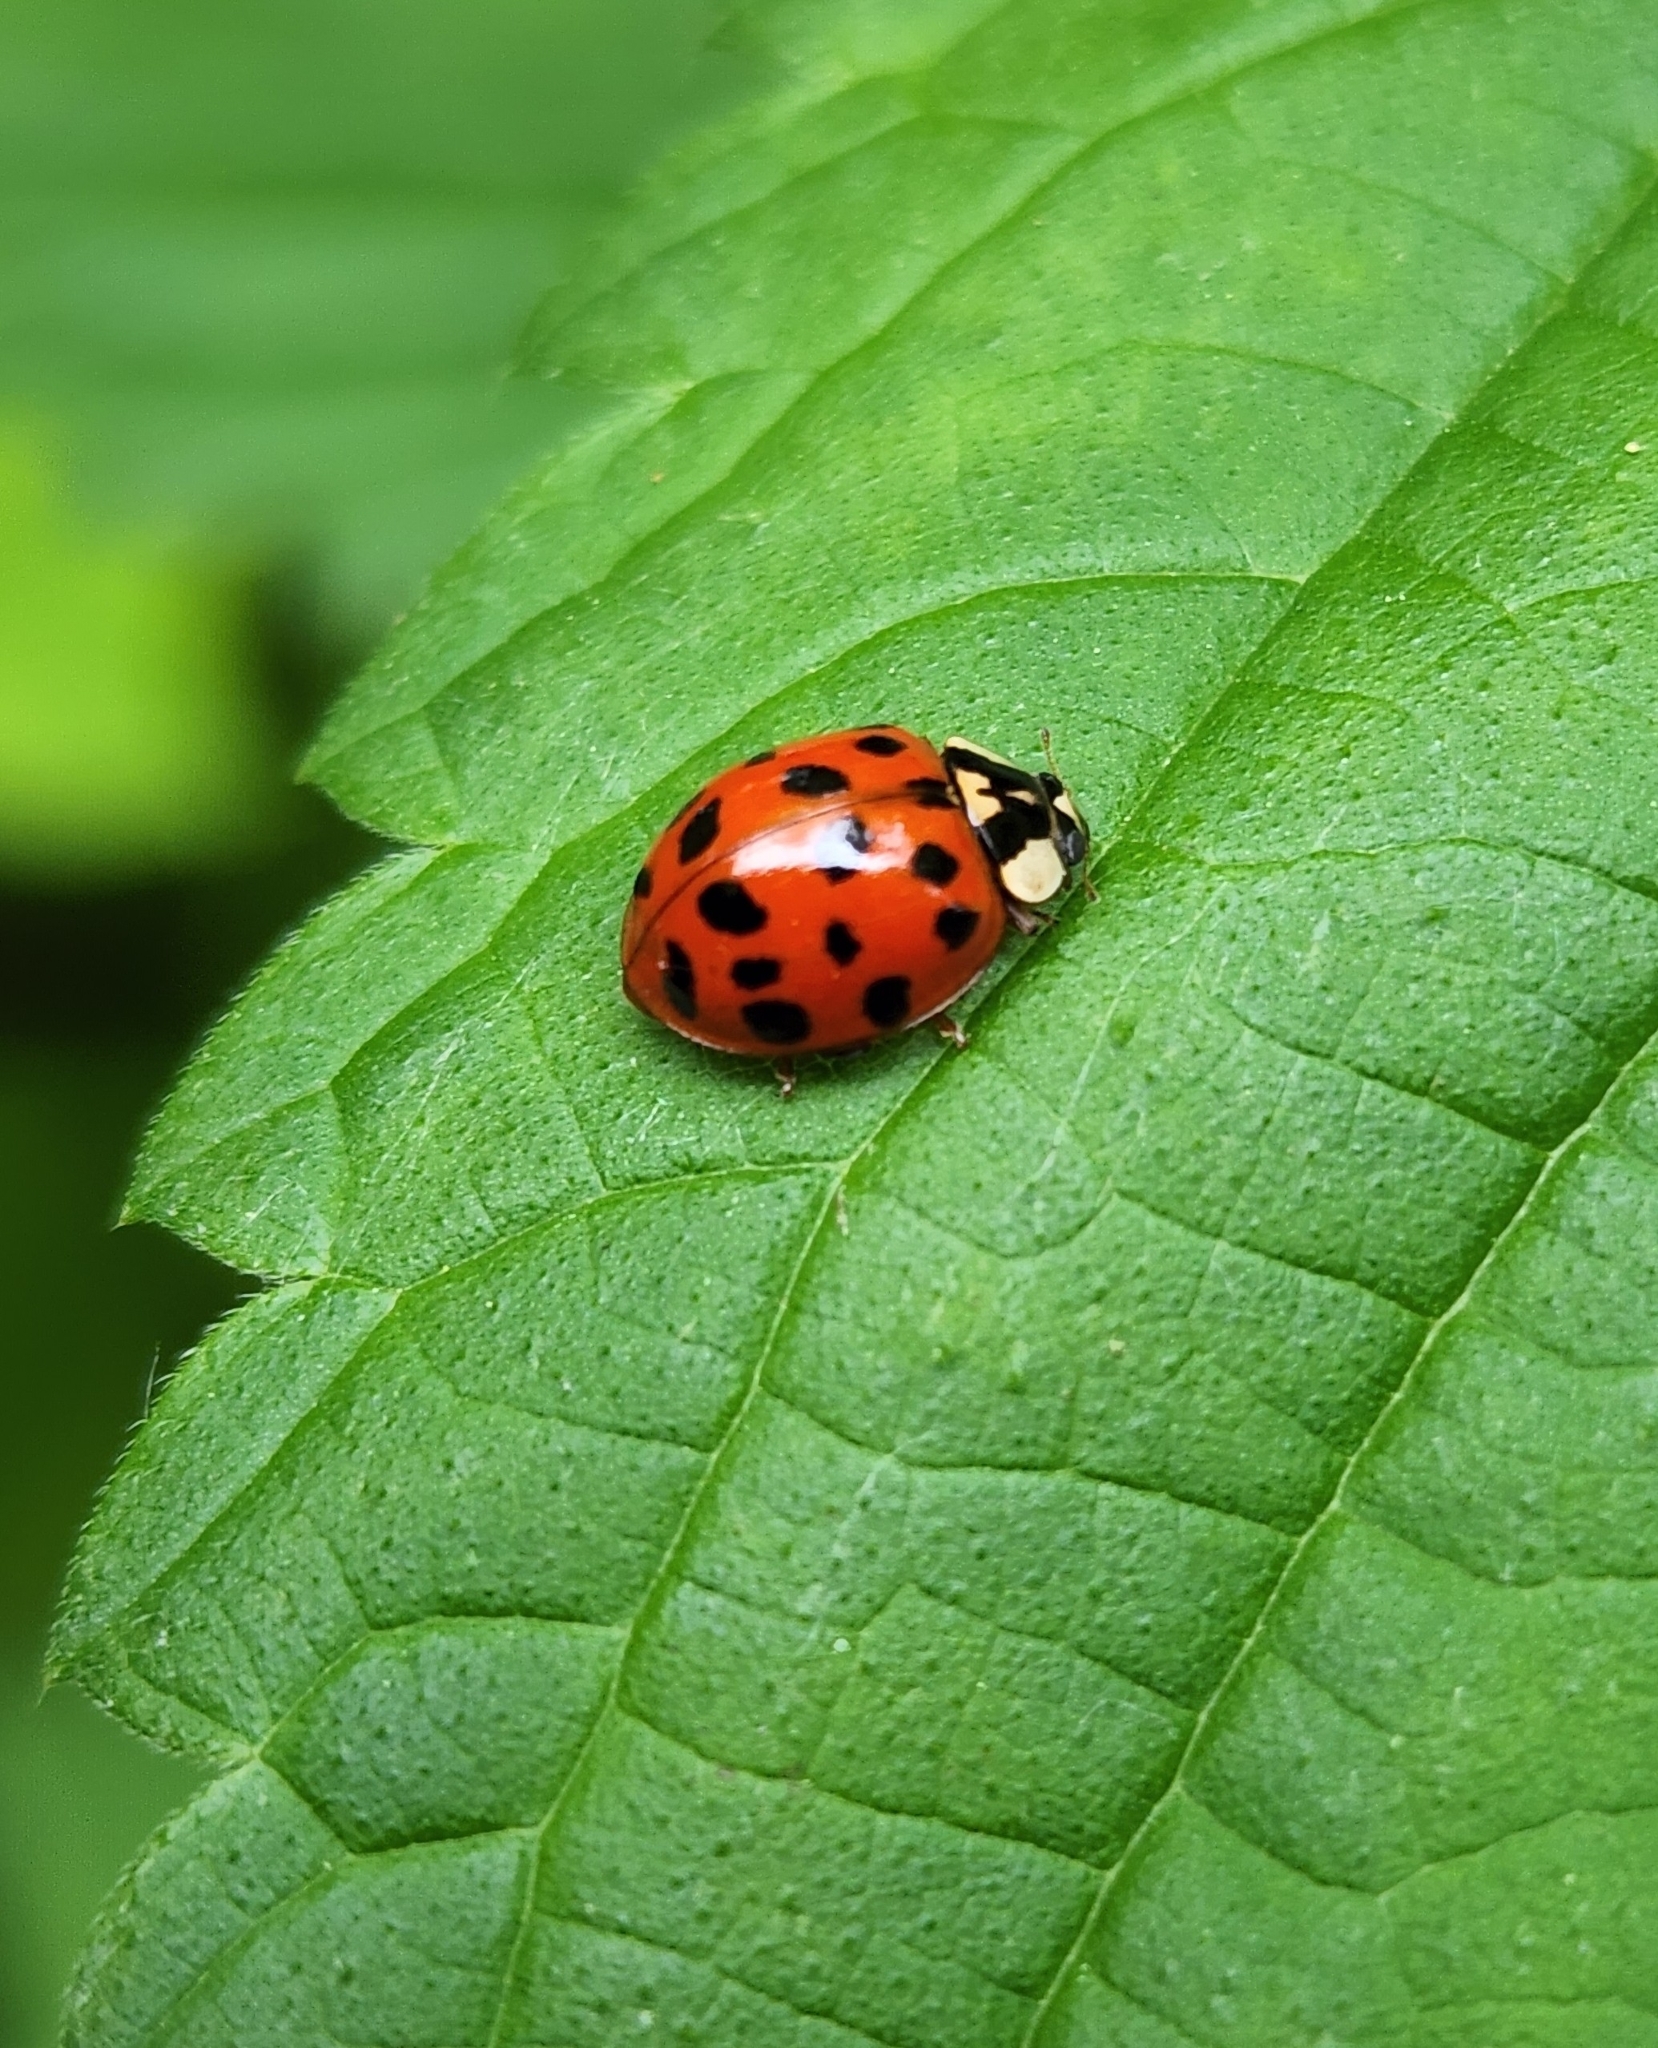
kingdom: Animalia
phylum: Arthropoda
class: Insecta
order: Coleoptera
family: Coccinellidae
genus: Harmonia
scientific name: Harmonia axyridis
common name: Harlequin ladybird
